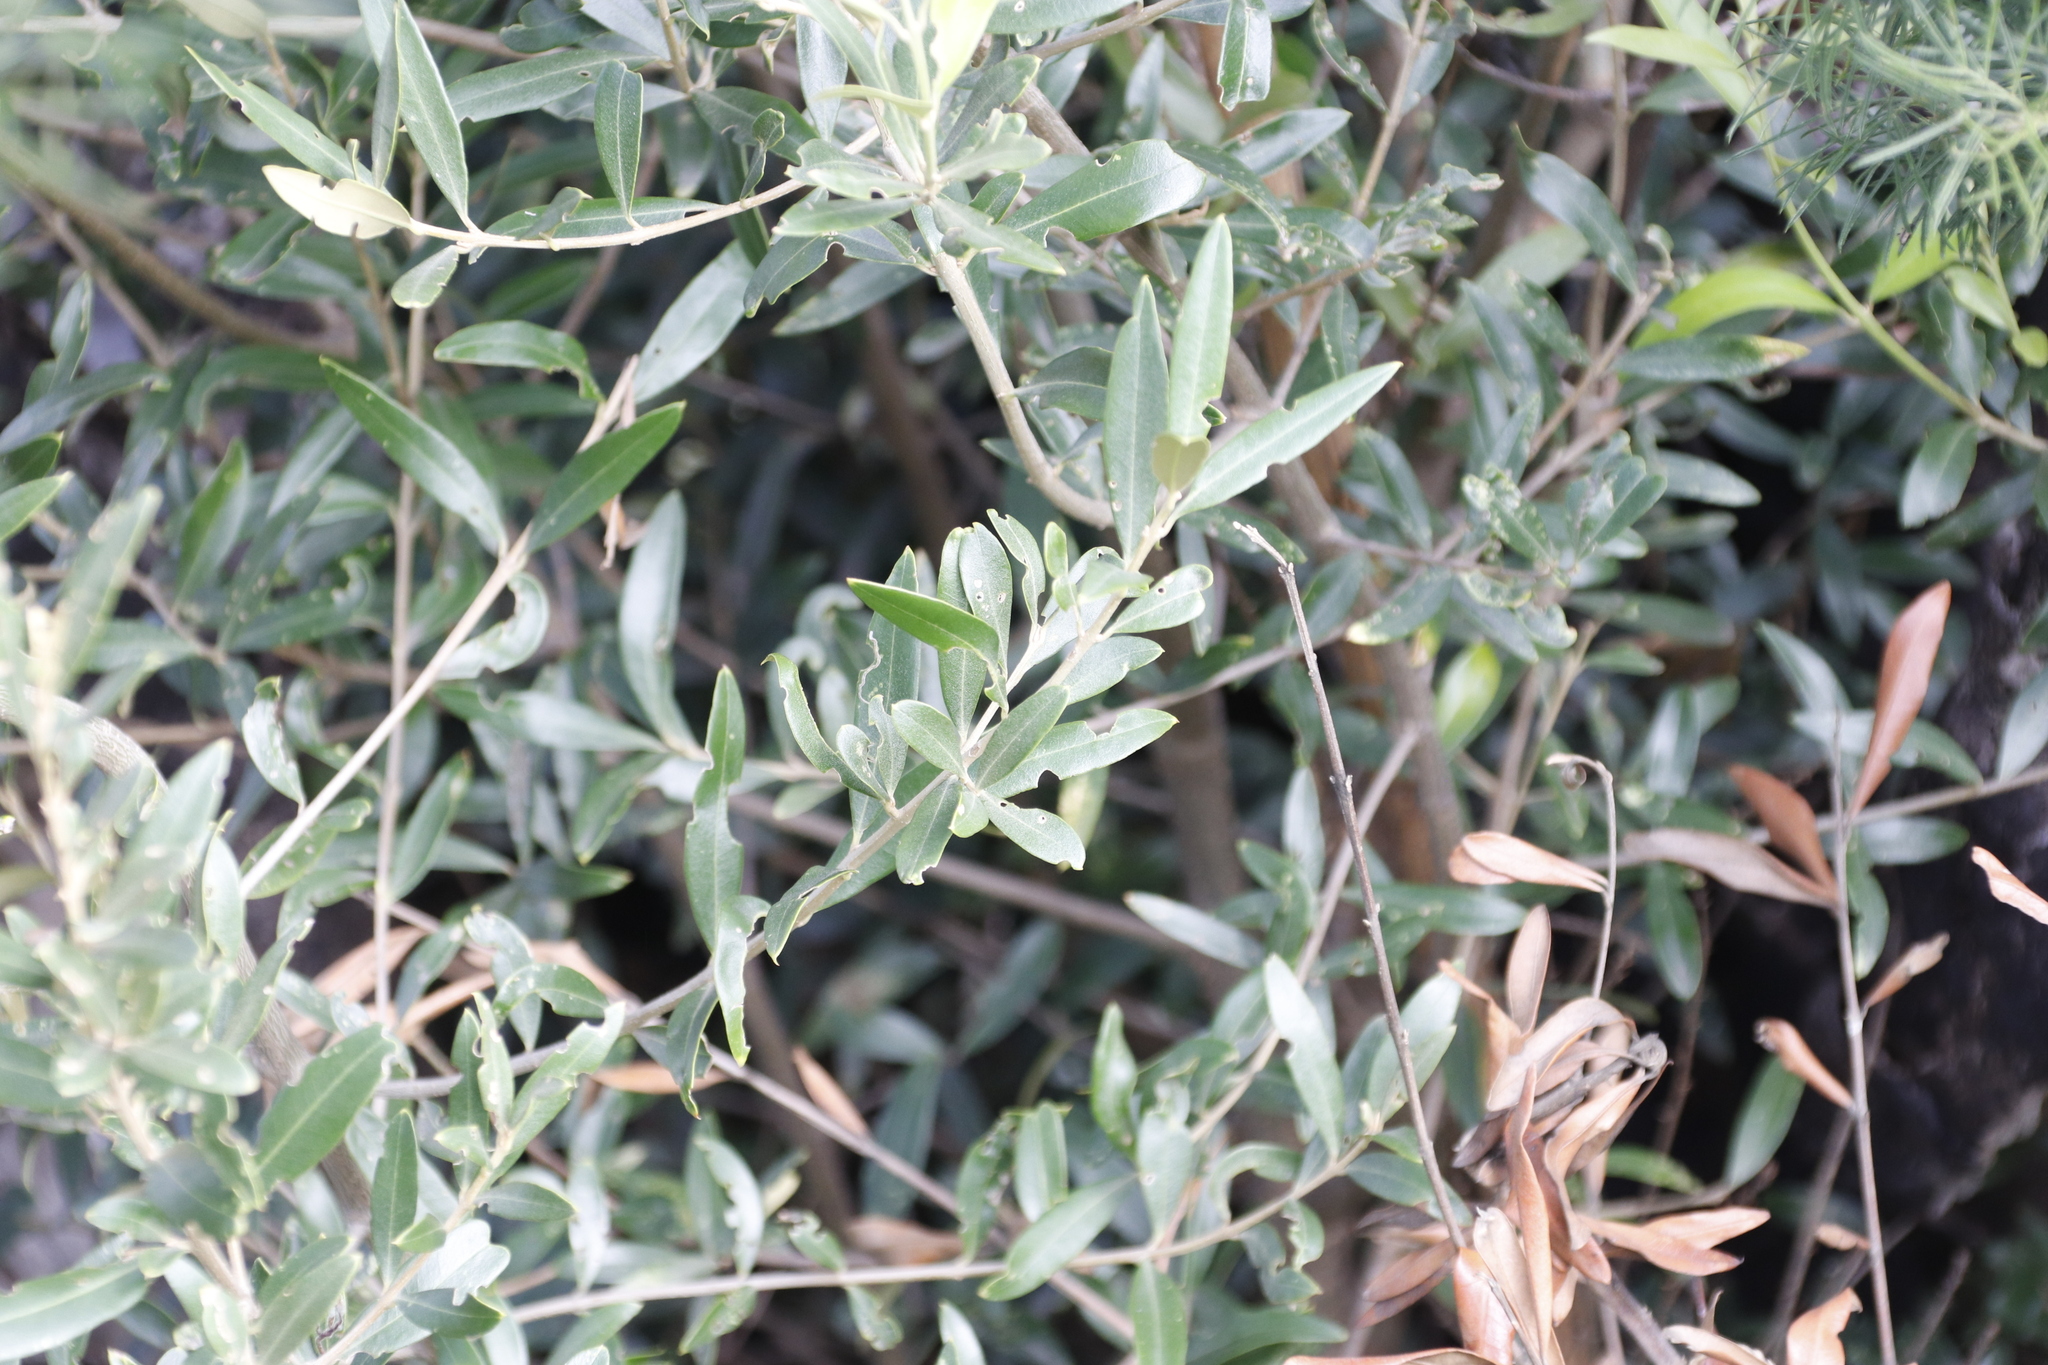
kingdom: Plantae
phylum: Tracheophyta
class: Magnoliopsida
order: Lamiales
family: Oleaceae
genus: Olea
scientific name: Olea europaea
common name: Olive
